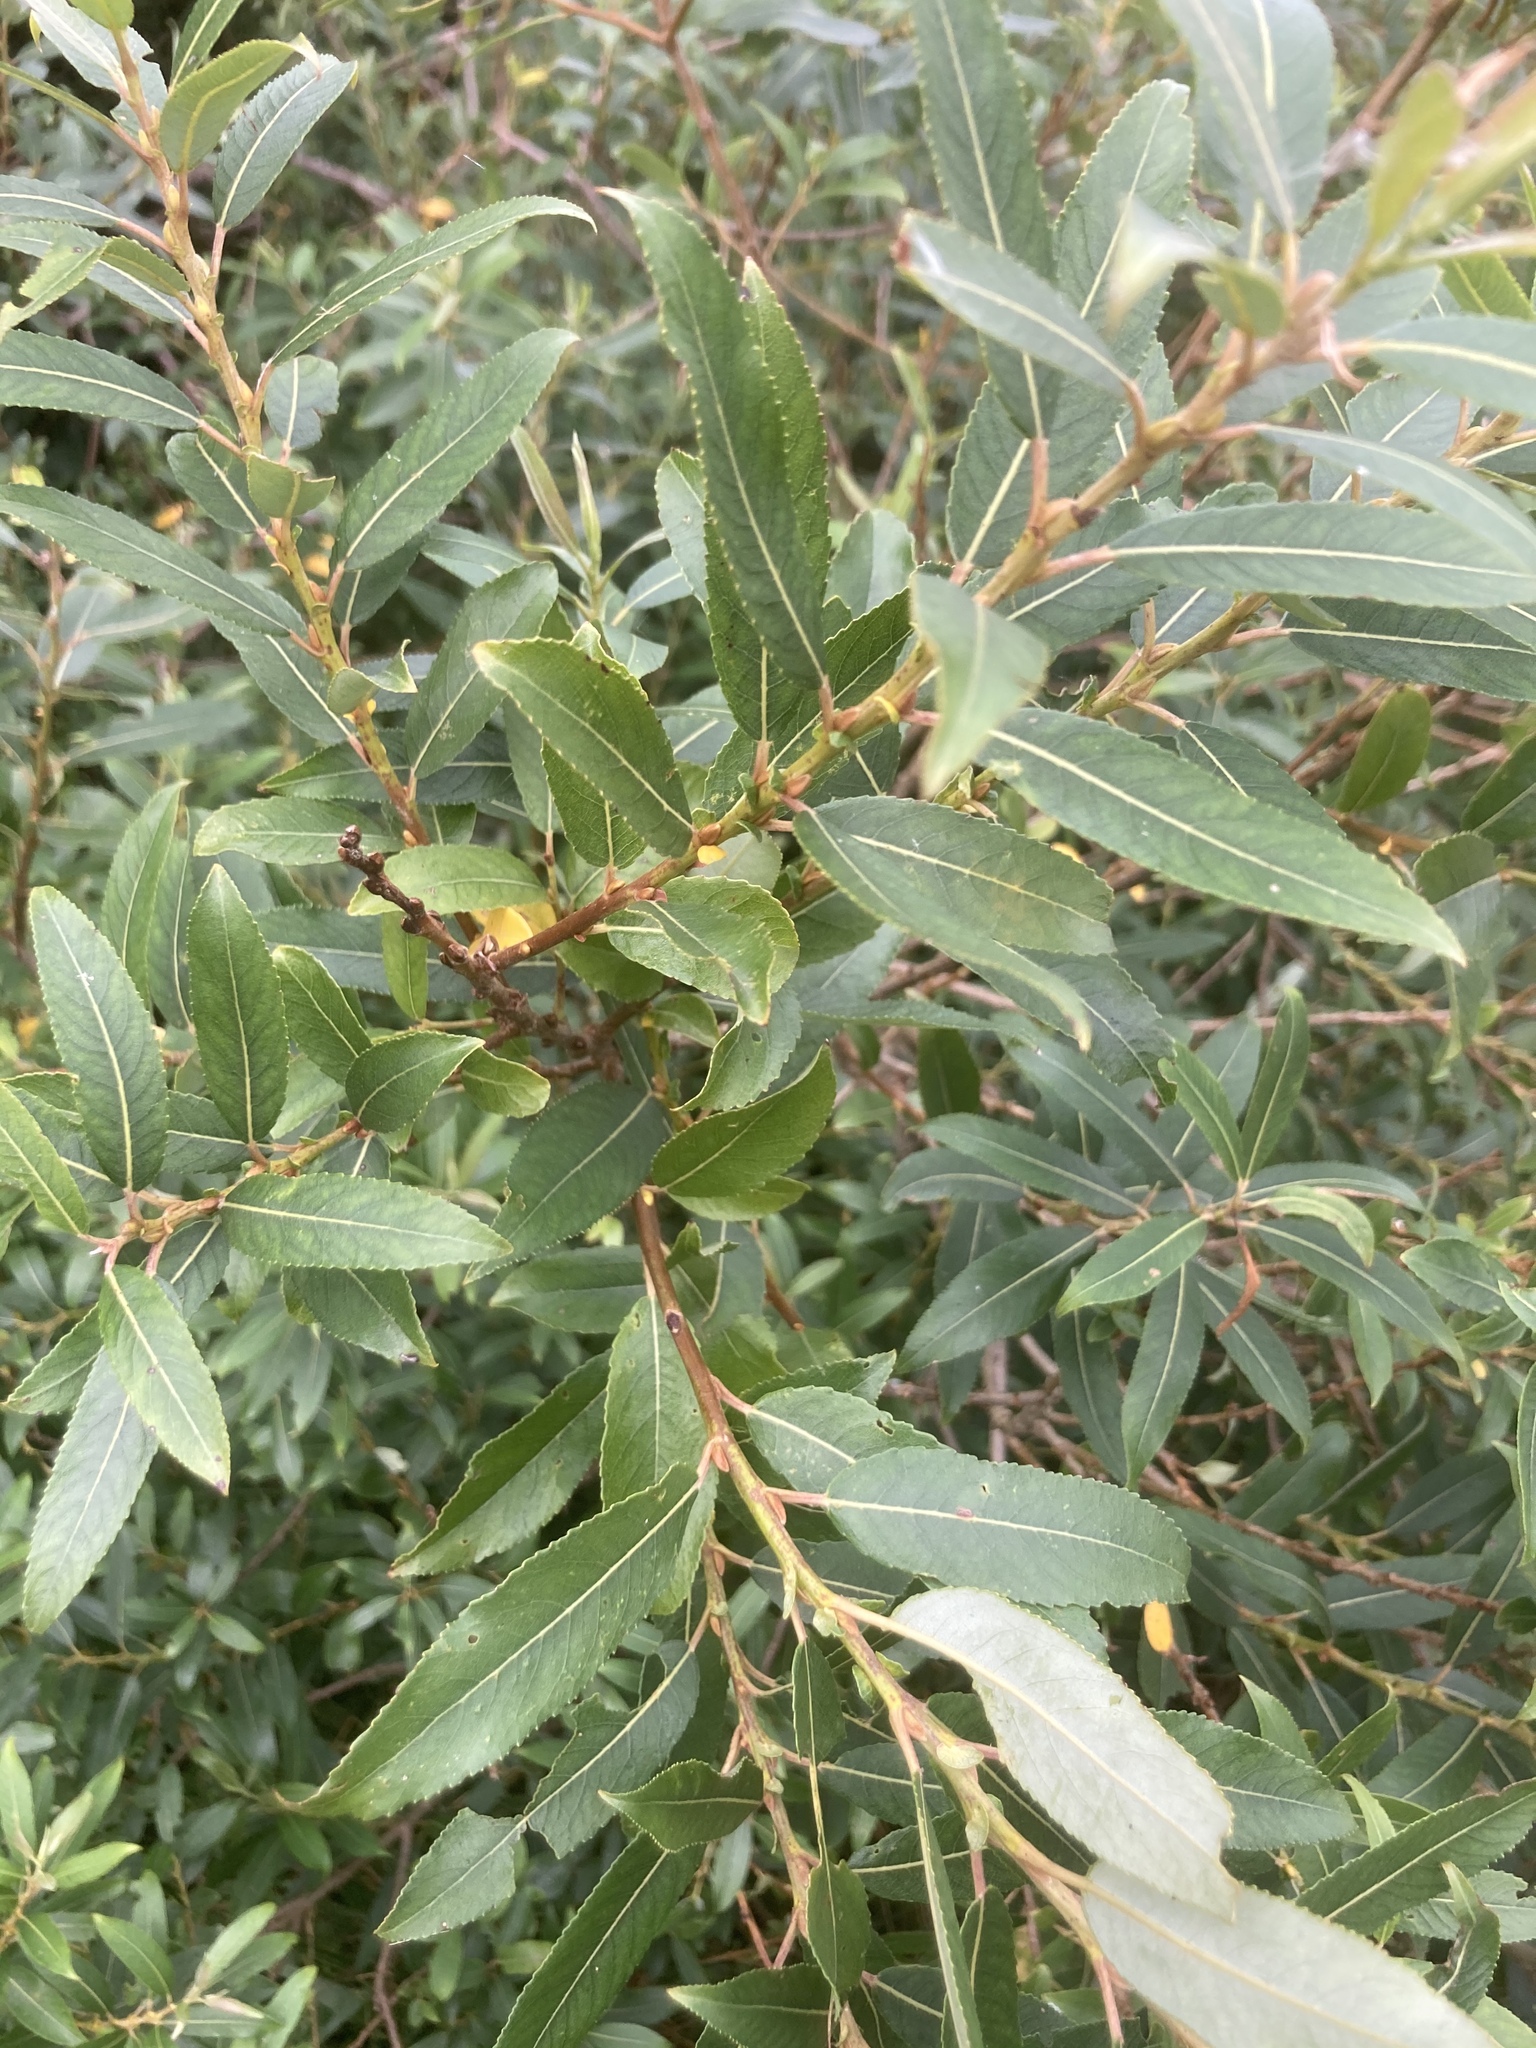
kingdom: Plantae
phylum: Tracheophyta
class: Magnoliopsida
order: Malpighiales
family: Salicaceae
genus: Salix
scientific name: Salix triandra
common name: Almond willow
